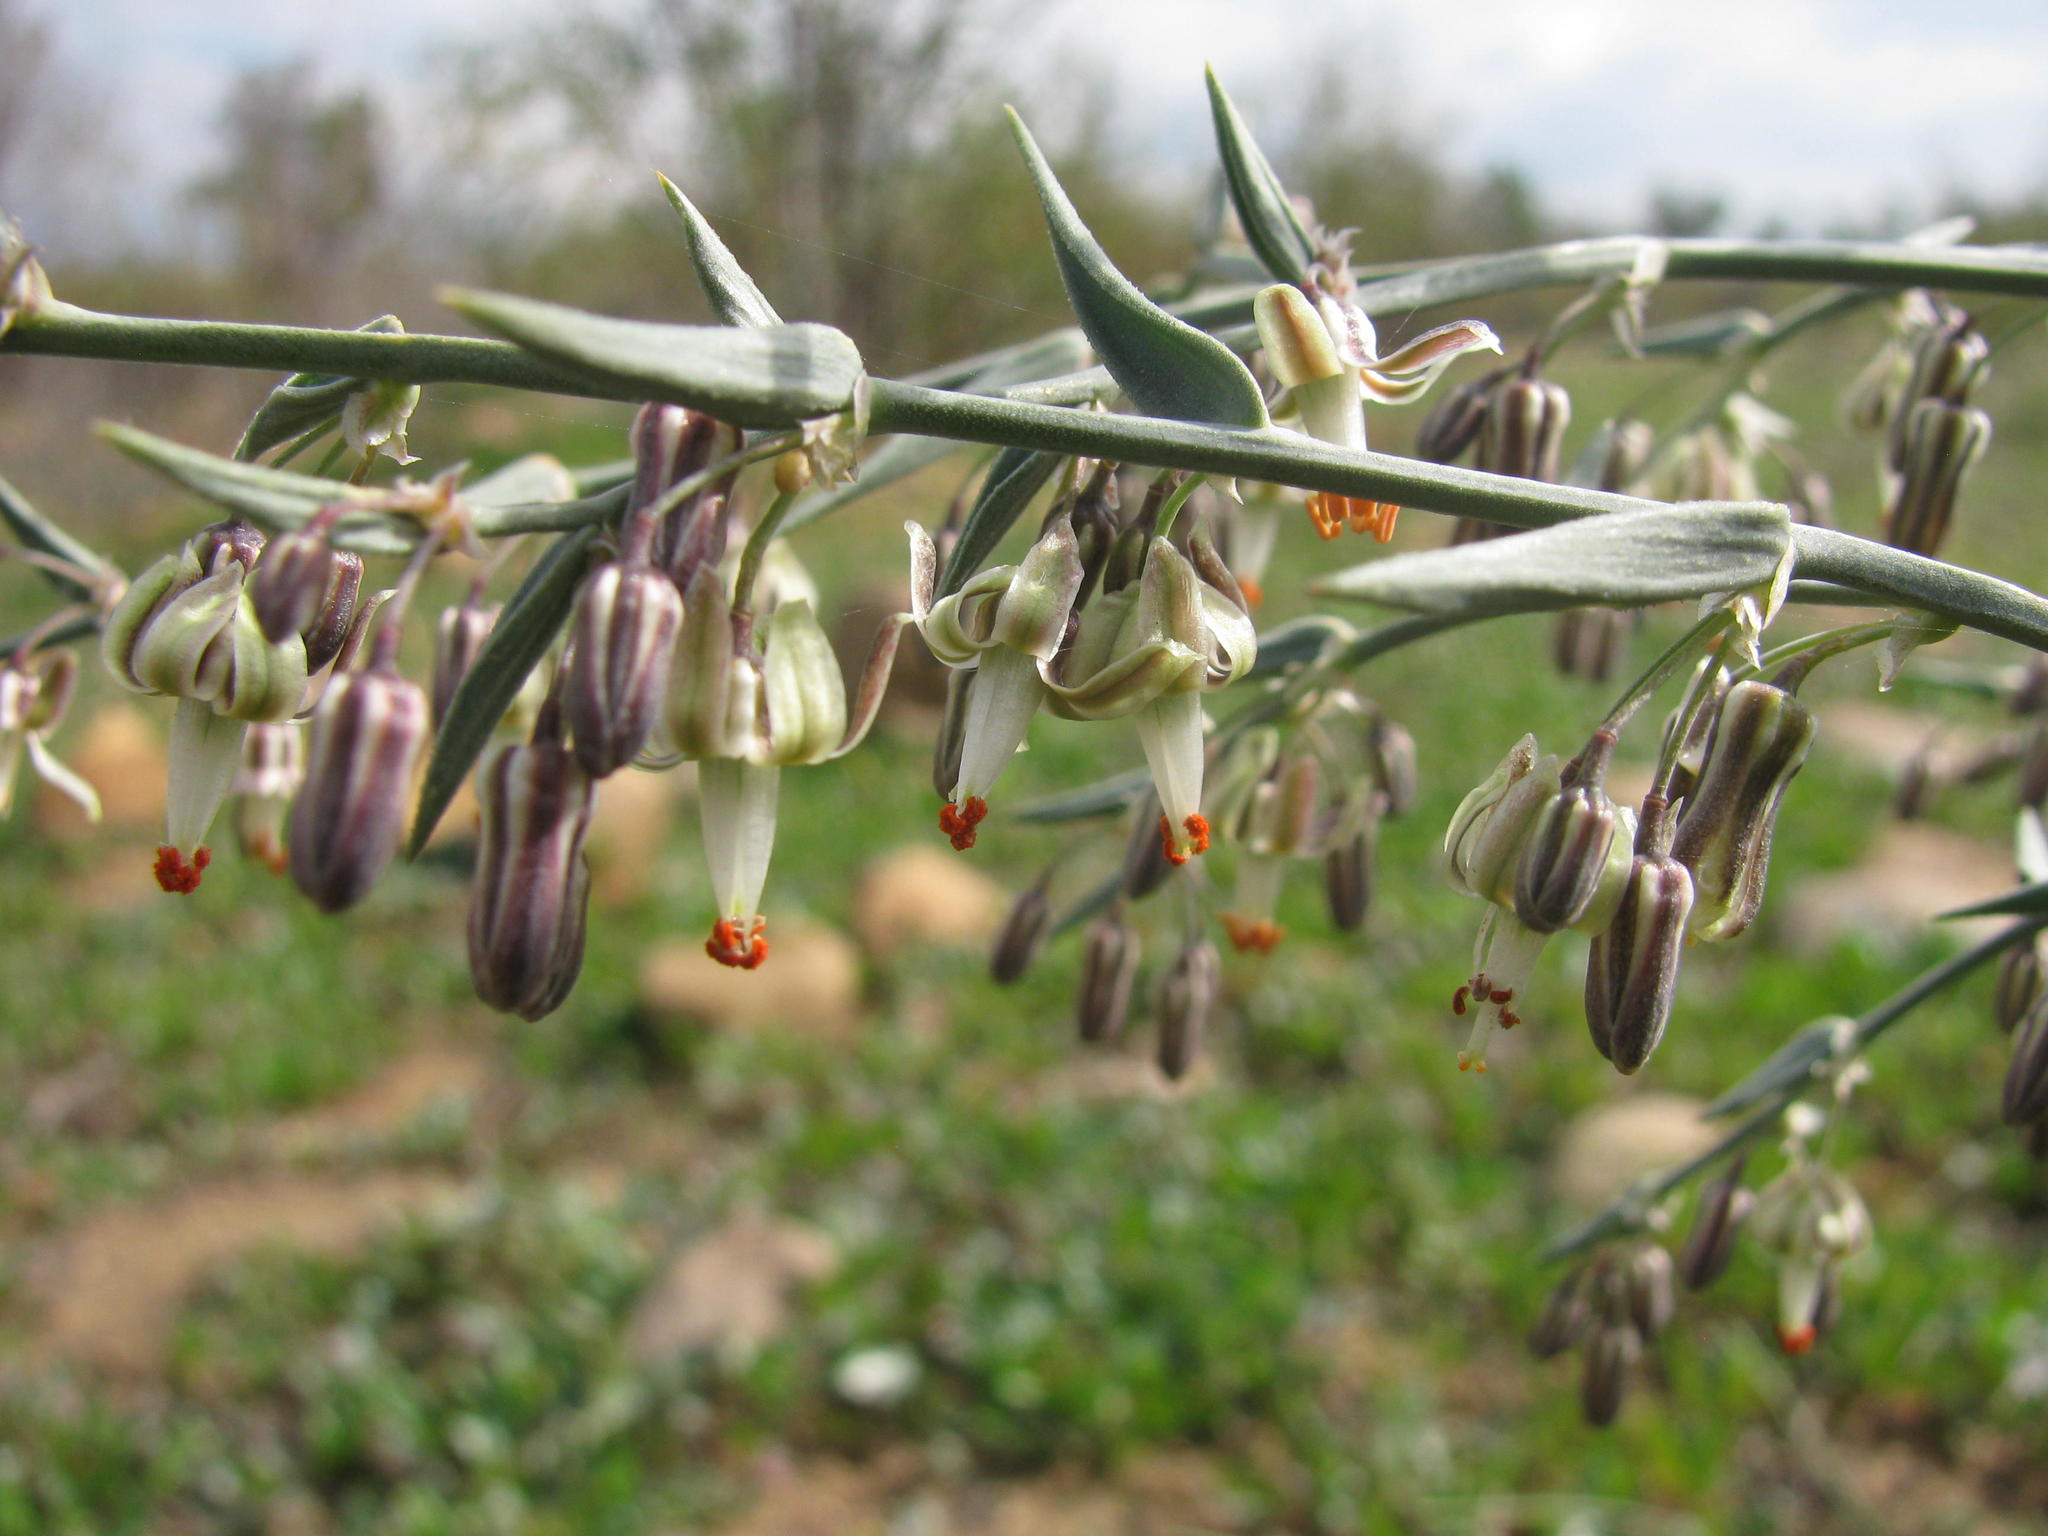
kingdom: Plantae
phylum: Tracheophyta
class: Liliopsida
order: Asparagales
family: Asparagaceae
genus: Asparagus
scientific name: Asparagus undulatus
